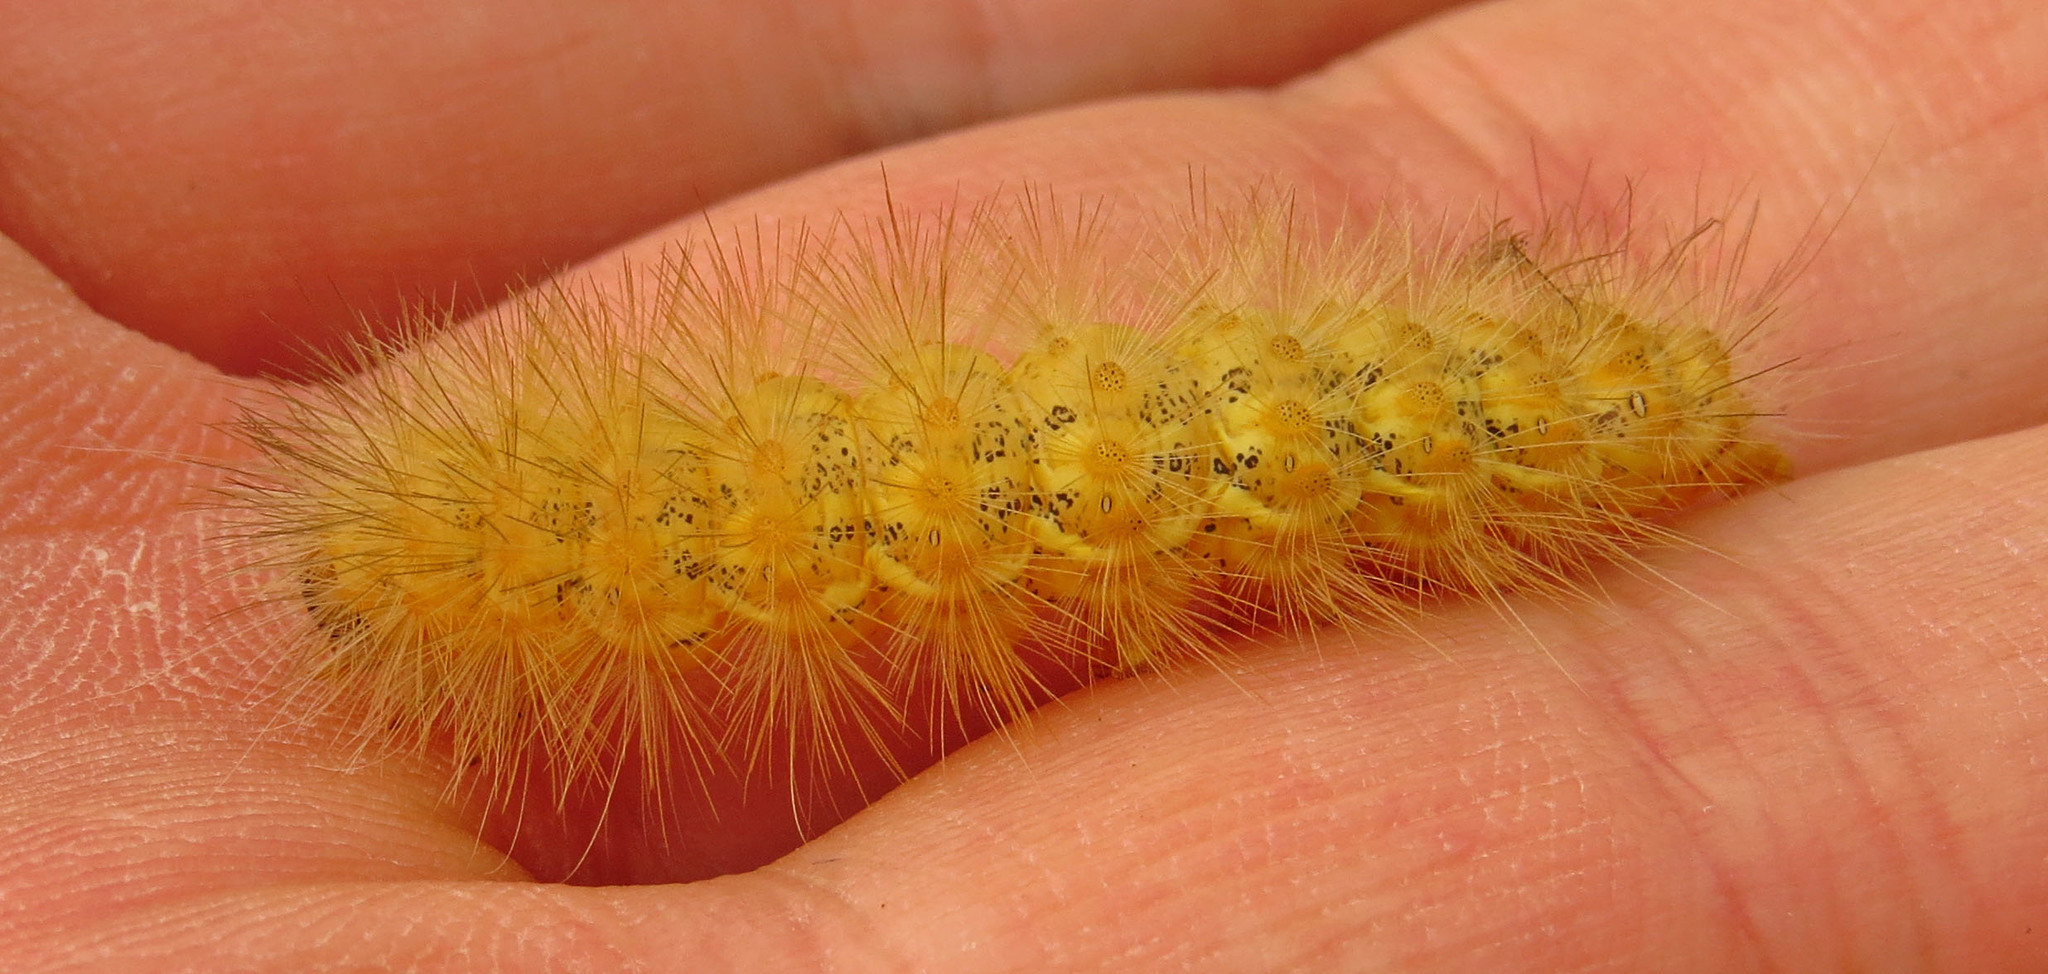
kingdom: Animalia
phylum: Arthropoda
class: Insecta
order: Lepidoptera
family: Erebidae
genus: Estigmene
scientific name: Estigmene acrea
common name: Salt marsh moth
